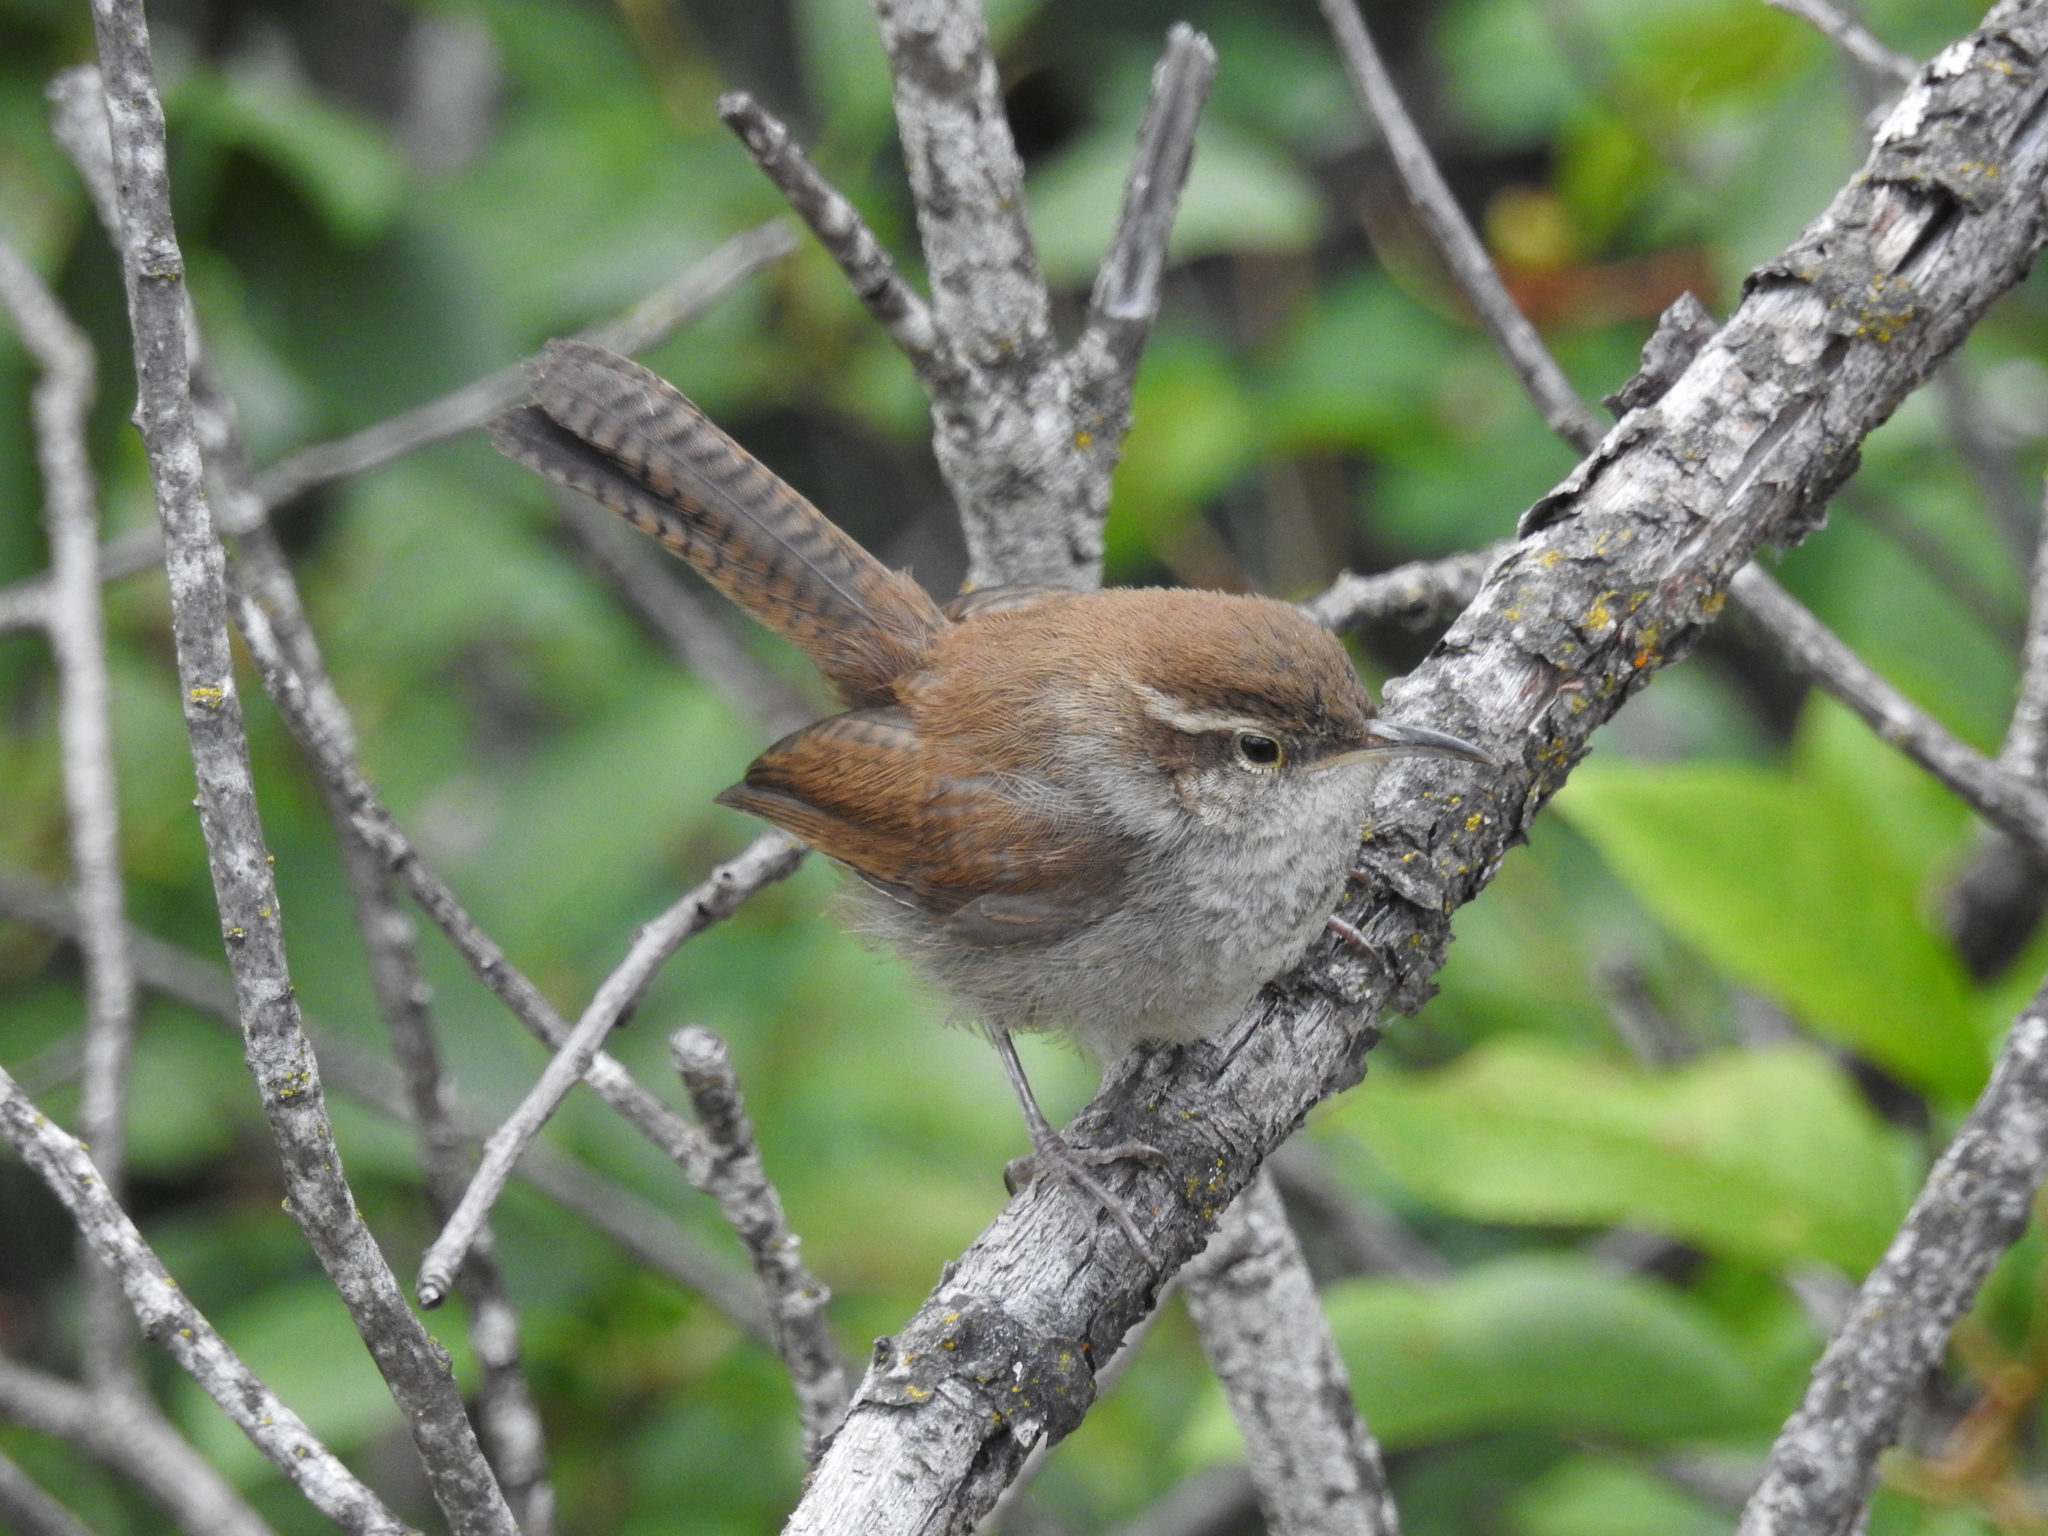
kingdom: Animalia
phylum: Chordata
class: Aves
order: Passeriformes
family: Troglodytidae
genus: Thryomanes
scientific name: Thryomanes bewickii
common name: Bewick's wren
